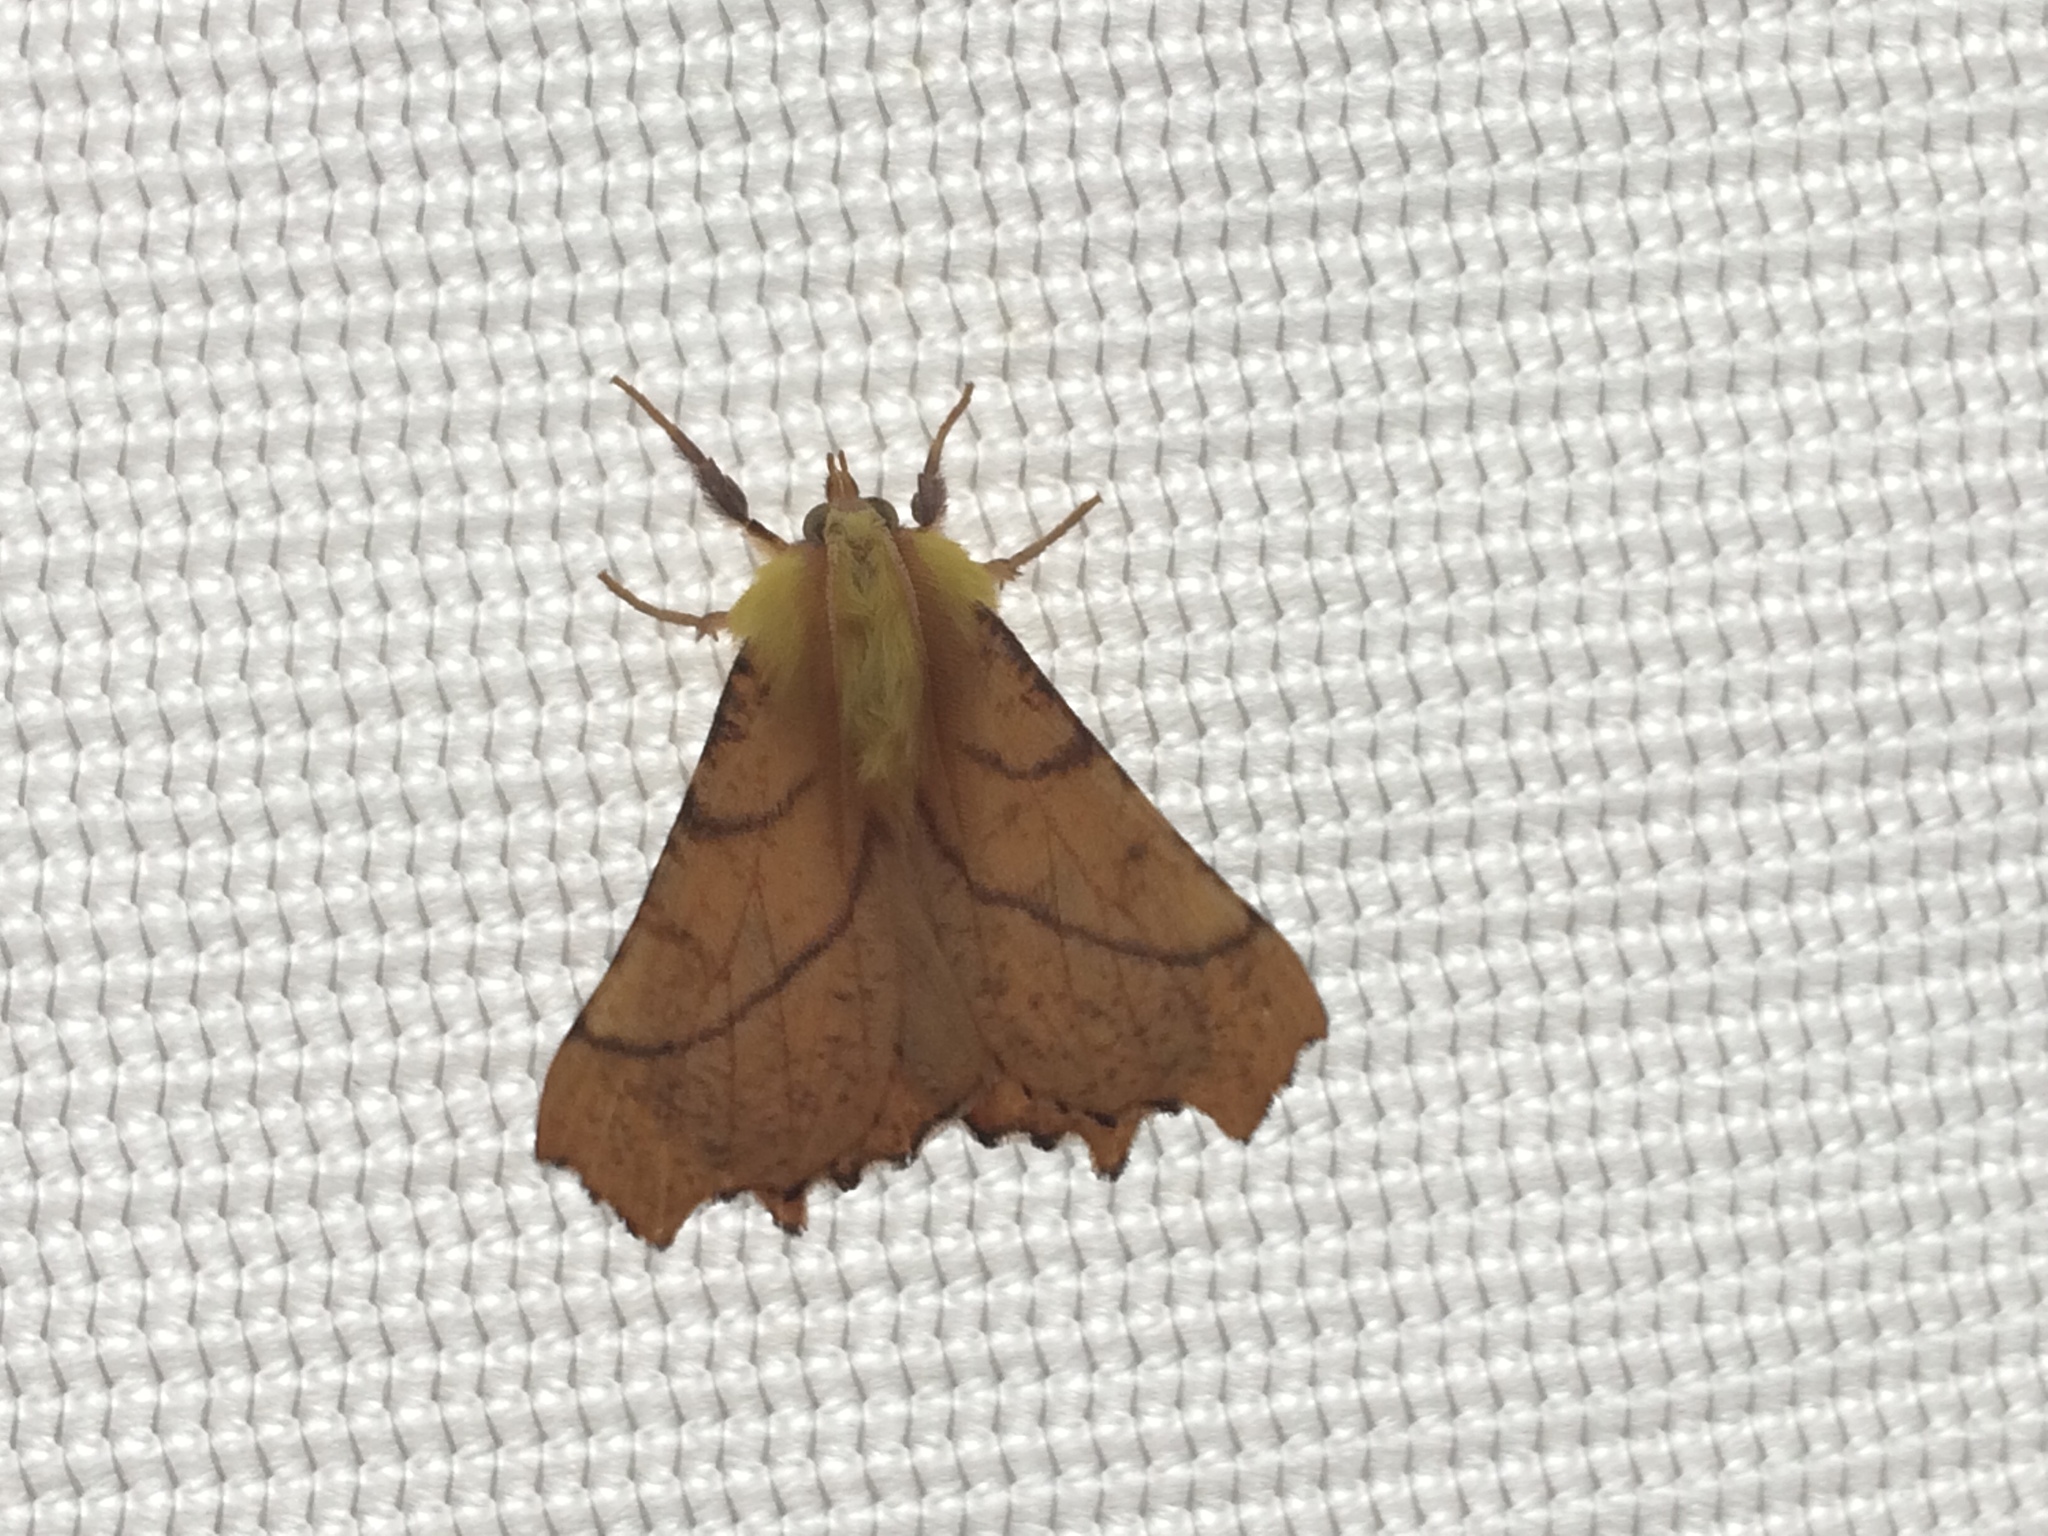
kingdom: Animalia
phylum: Arthropoda
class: Insecta
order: Lepidoptera
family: Geometridae
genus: Ennomos
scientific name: Ennomos alniaria
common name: Canary-shouldered thorn
